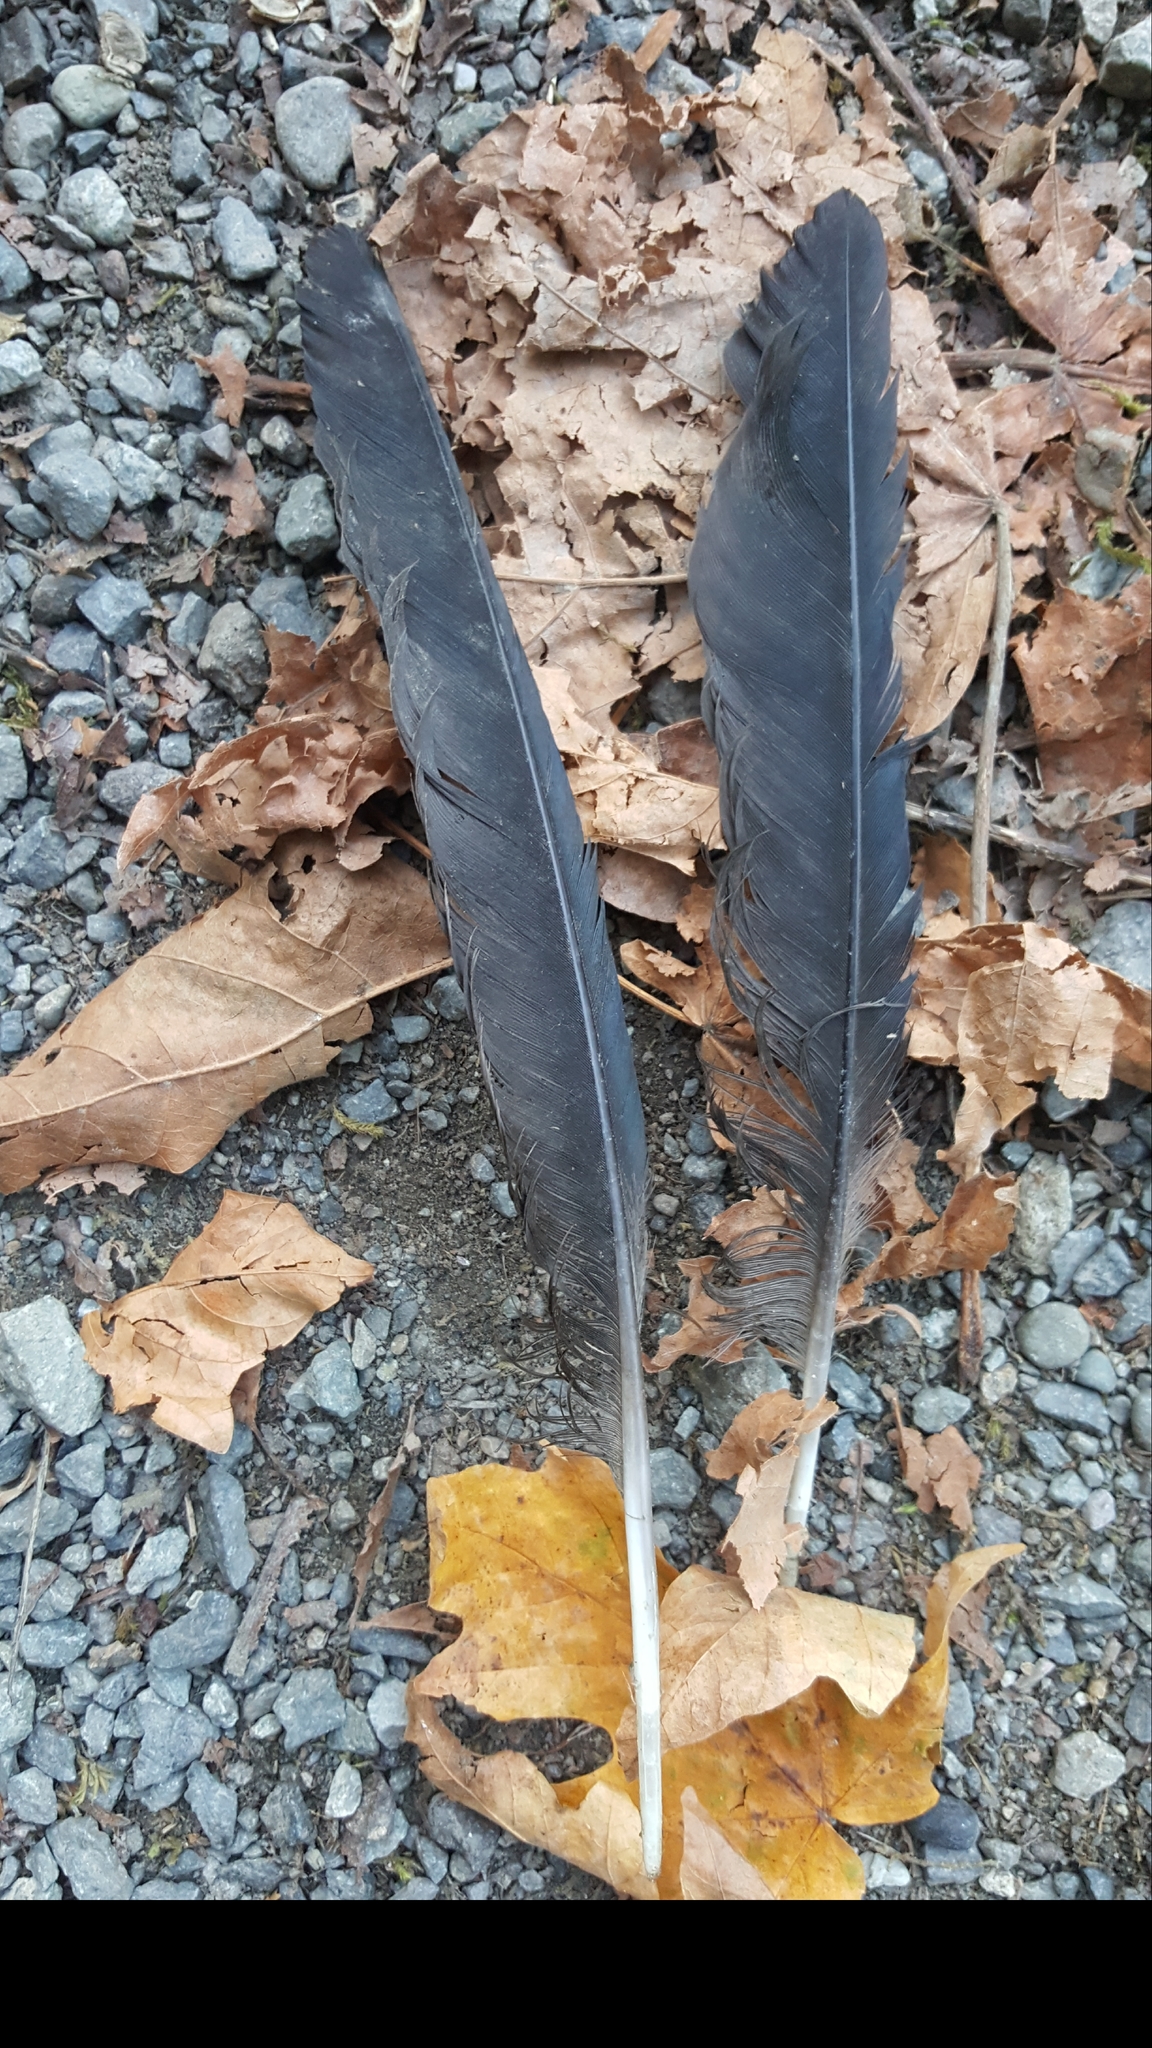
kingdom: Animalia
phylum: Chordata
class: Aves
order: Passeriformes
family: Corvidae
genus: Corvus
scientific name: Corvus brachyrhynchos
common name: American crow
